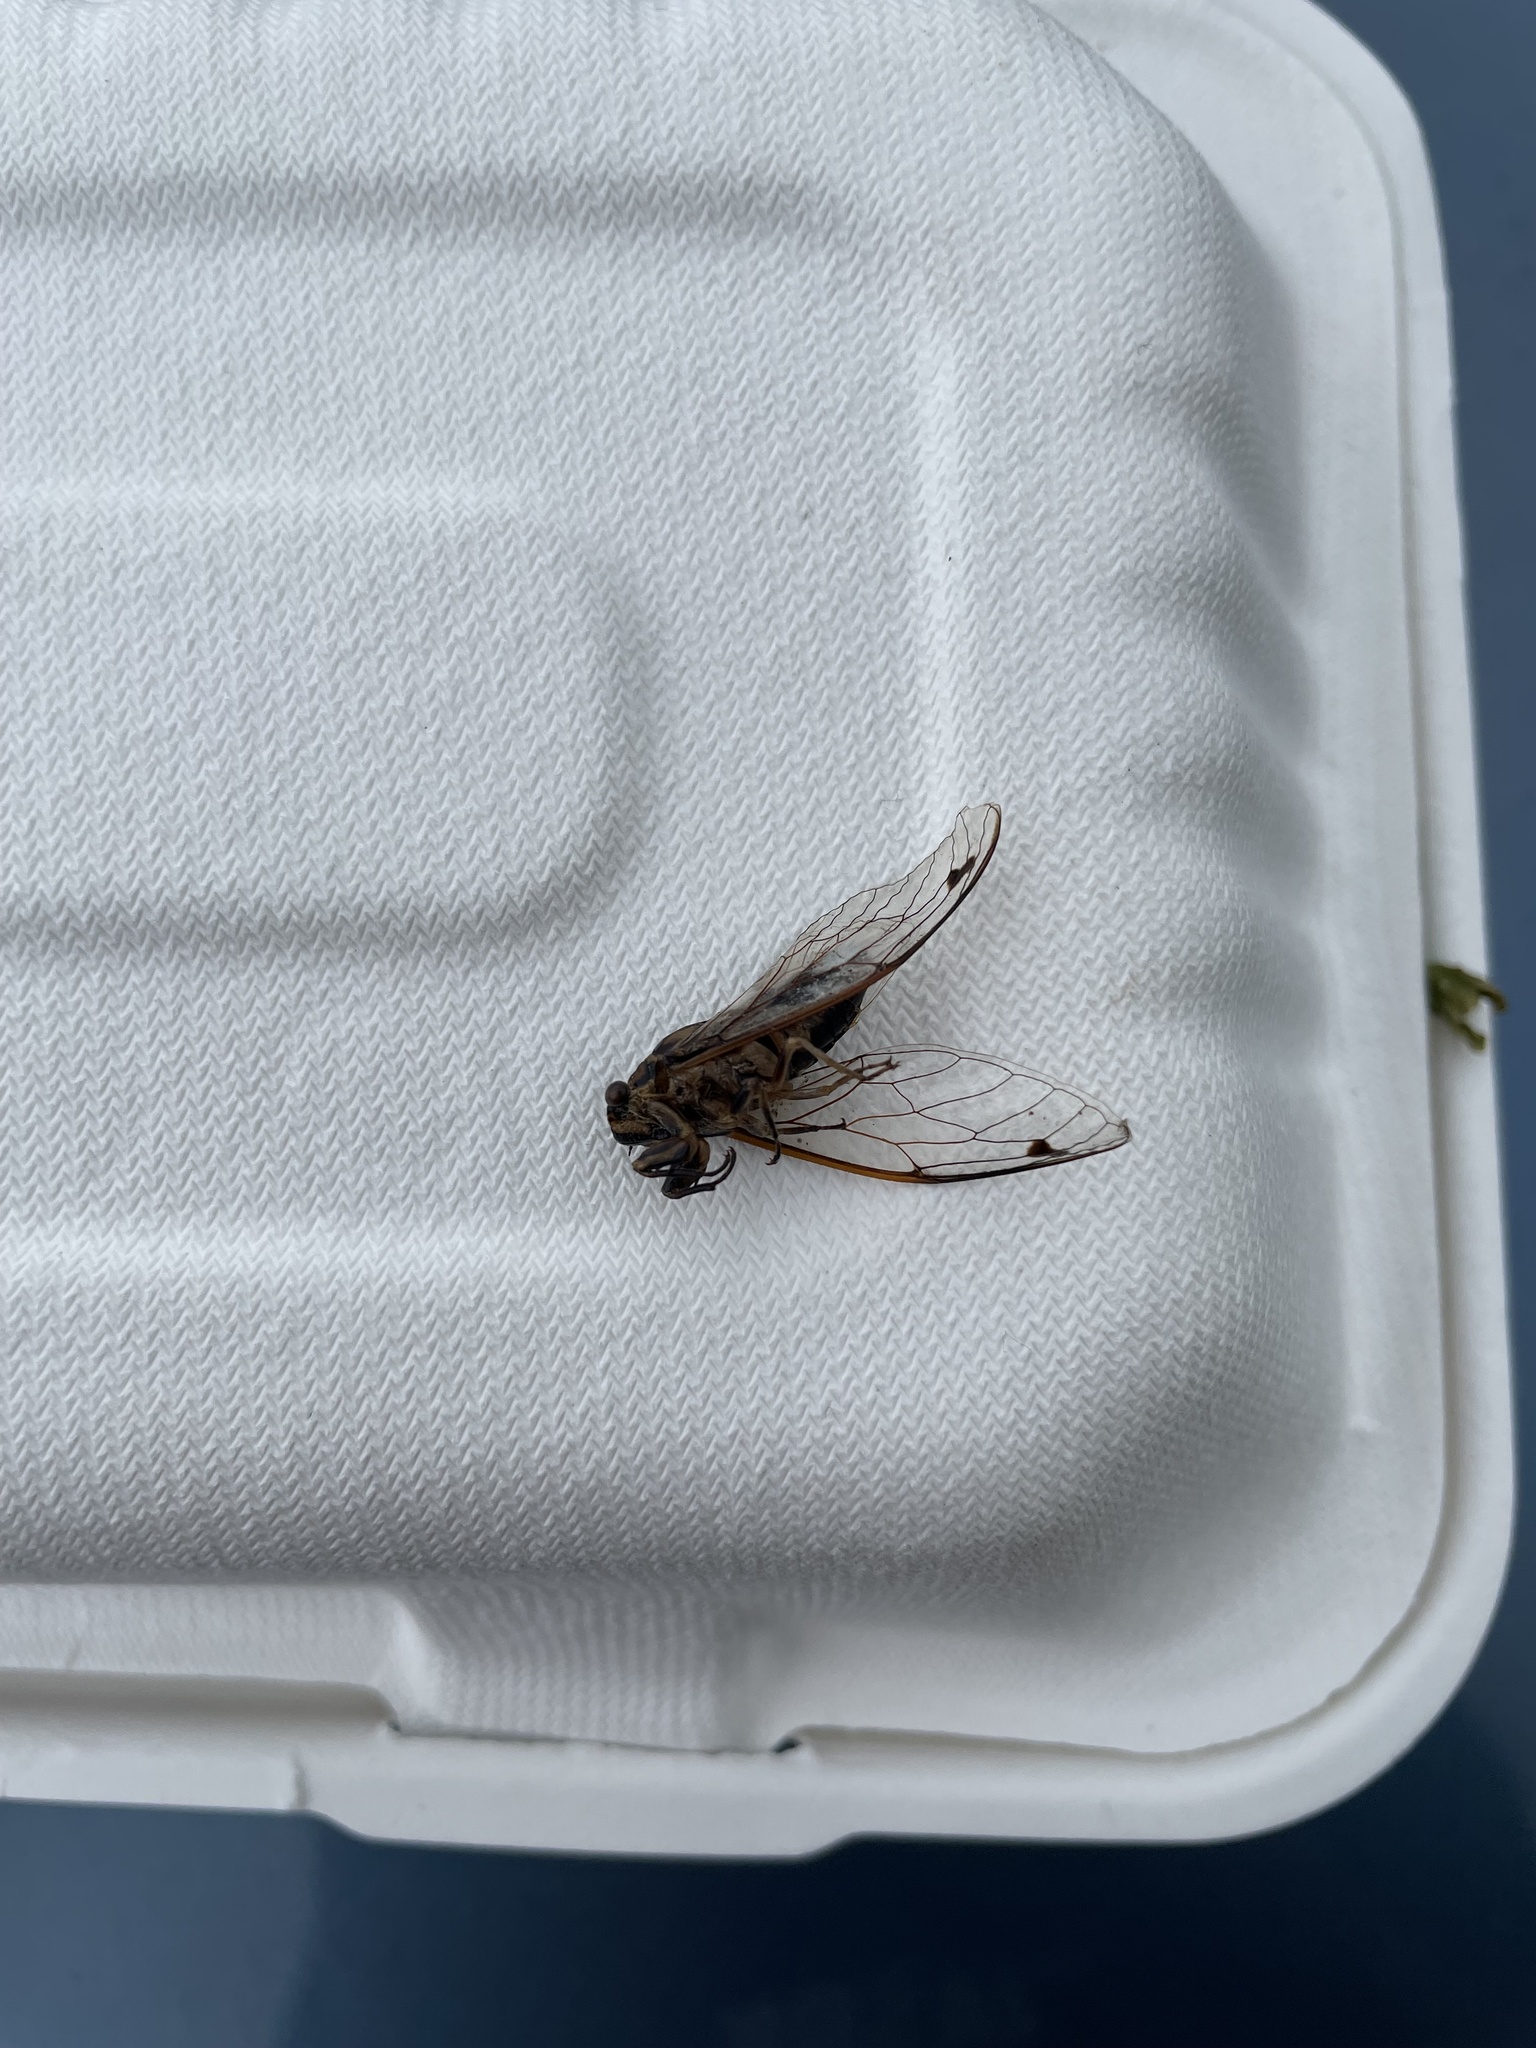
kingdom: Animalia
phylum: Arthropoda
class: Insecta
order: Hemiptera
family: Cicadidae
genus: Galanga
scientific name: Galanga labeculata
